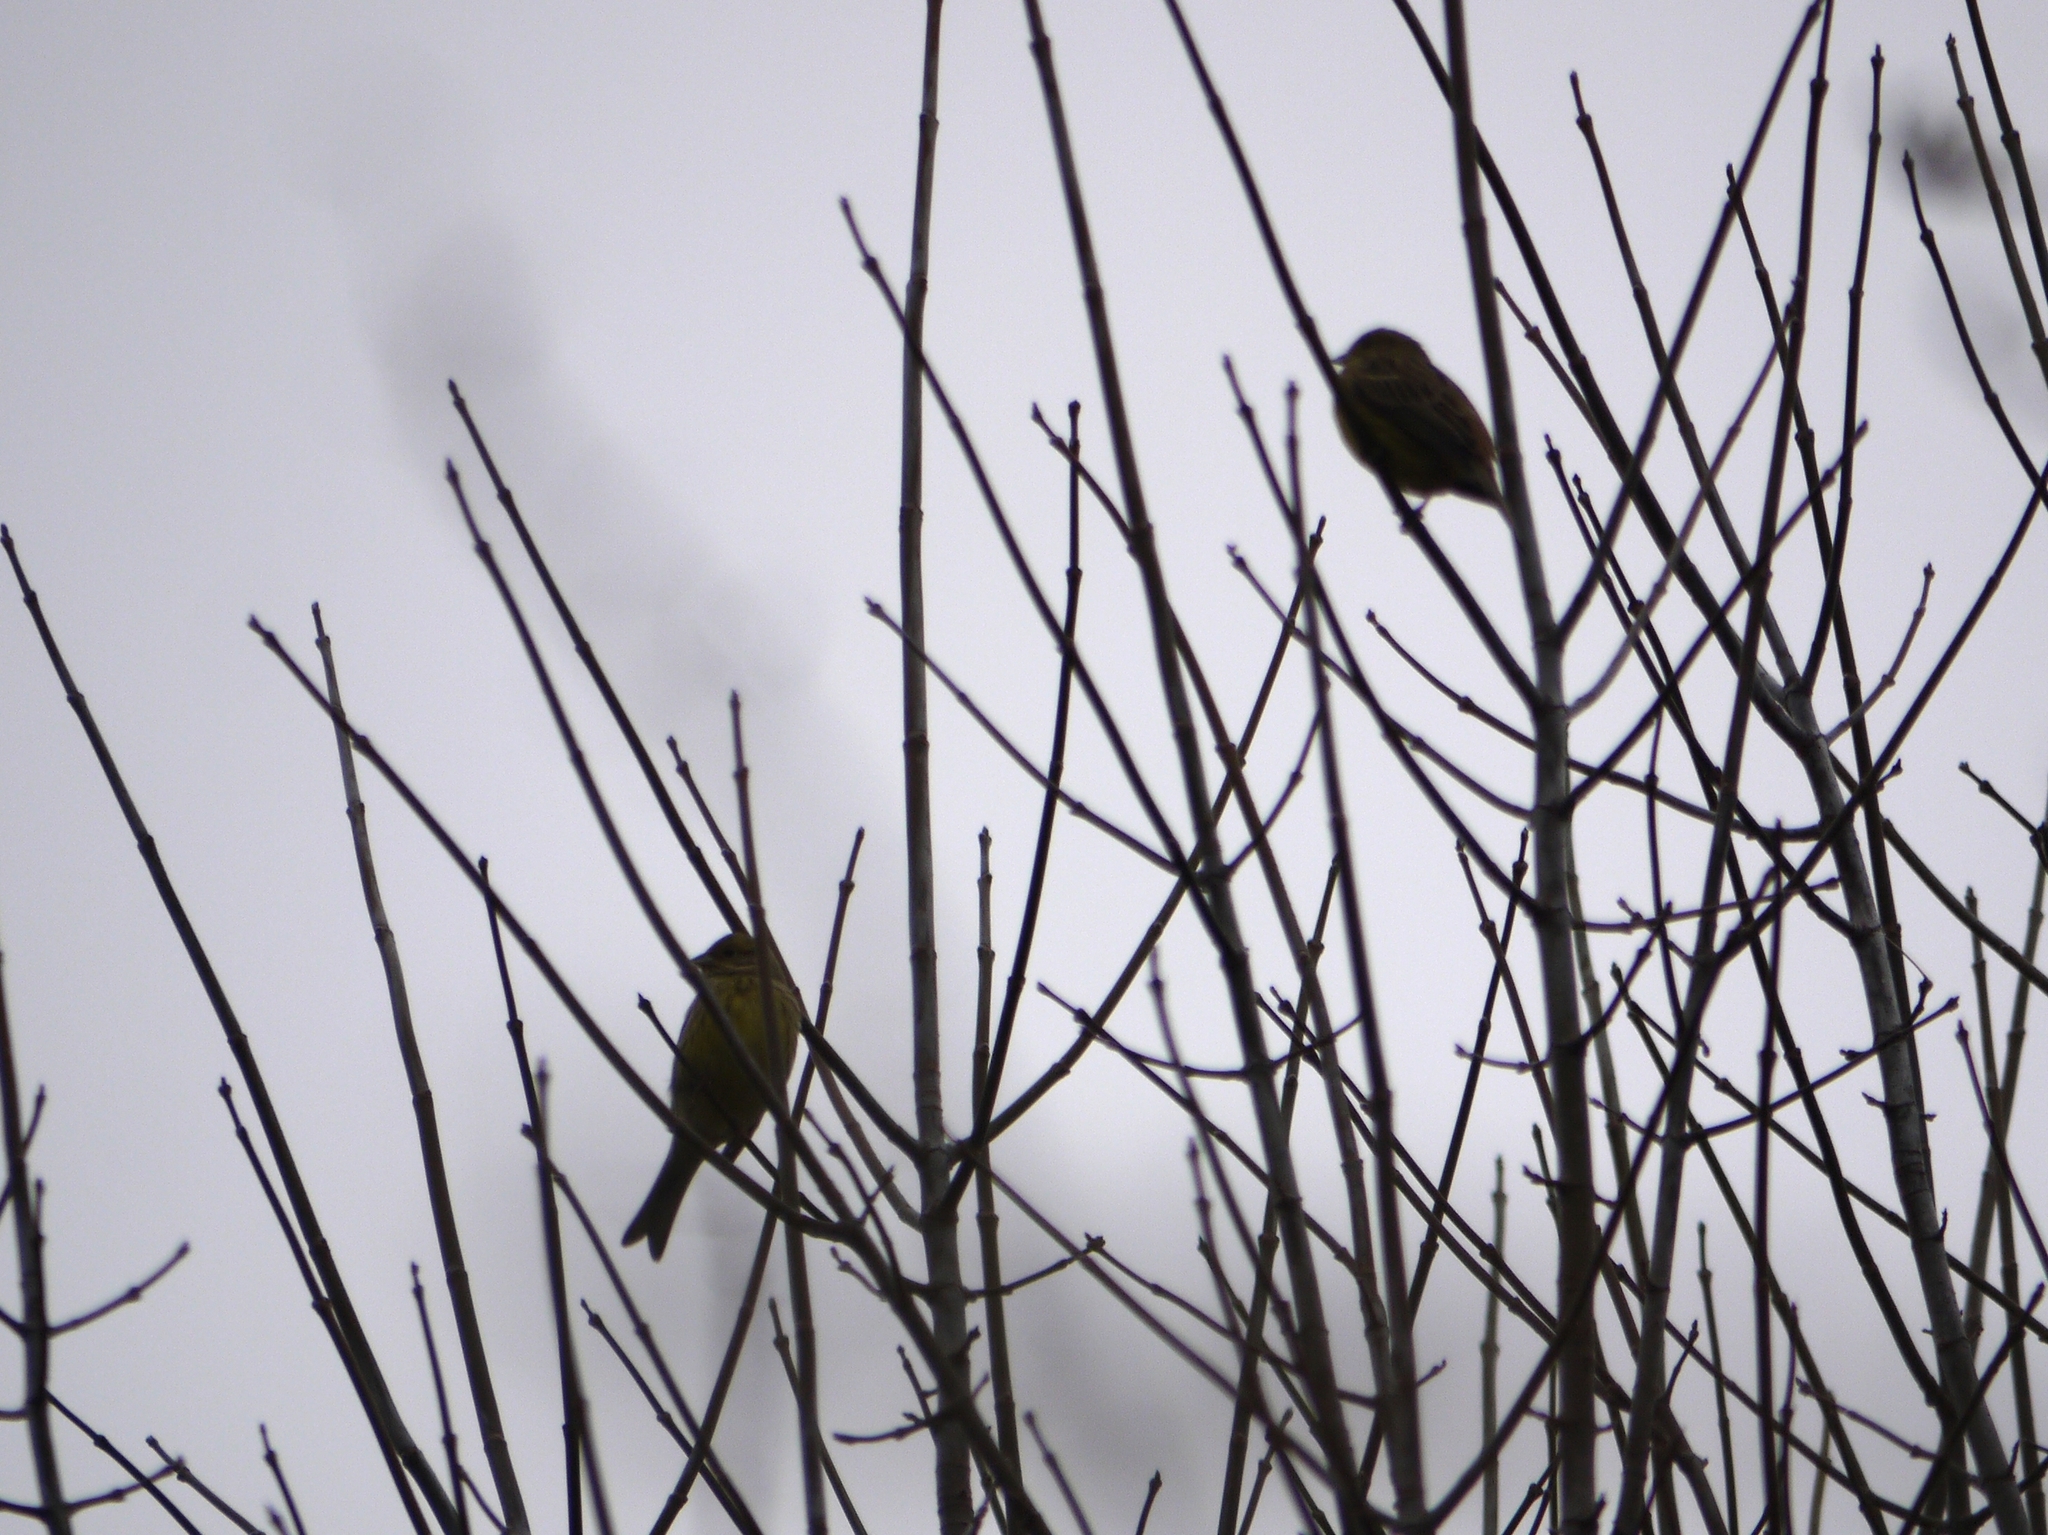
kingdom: Animalia
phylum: Chordata
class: Aves
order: Passeriformes
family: Emberizidae
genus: Emberiza
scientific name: Emberiza citrinella
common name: Yellowhammer
